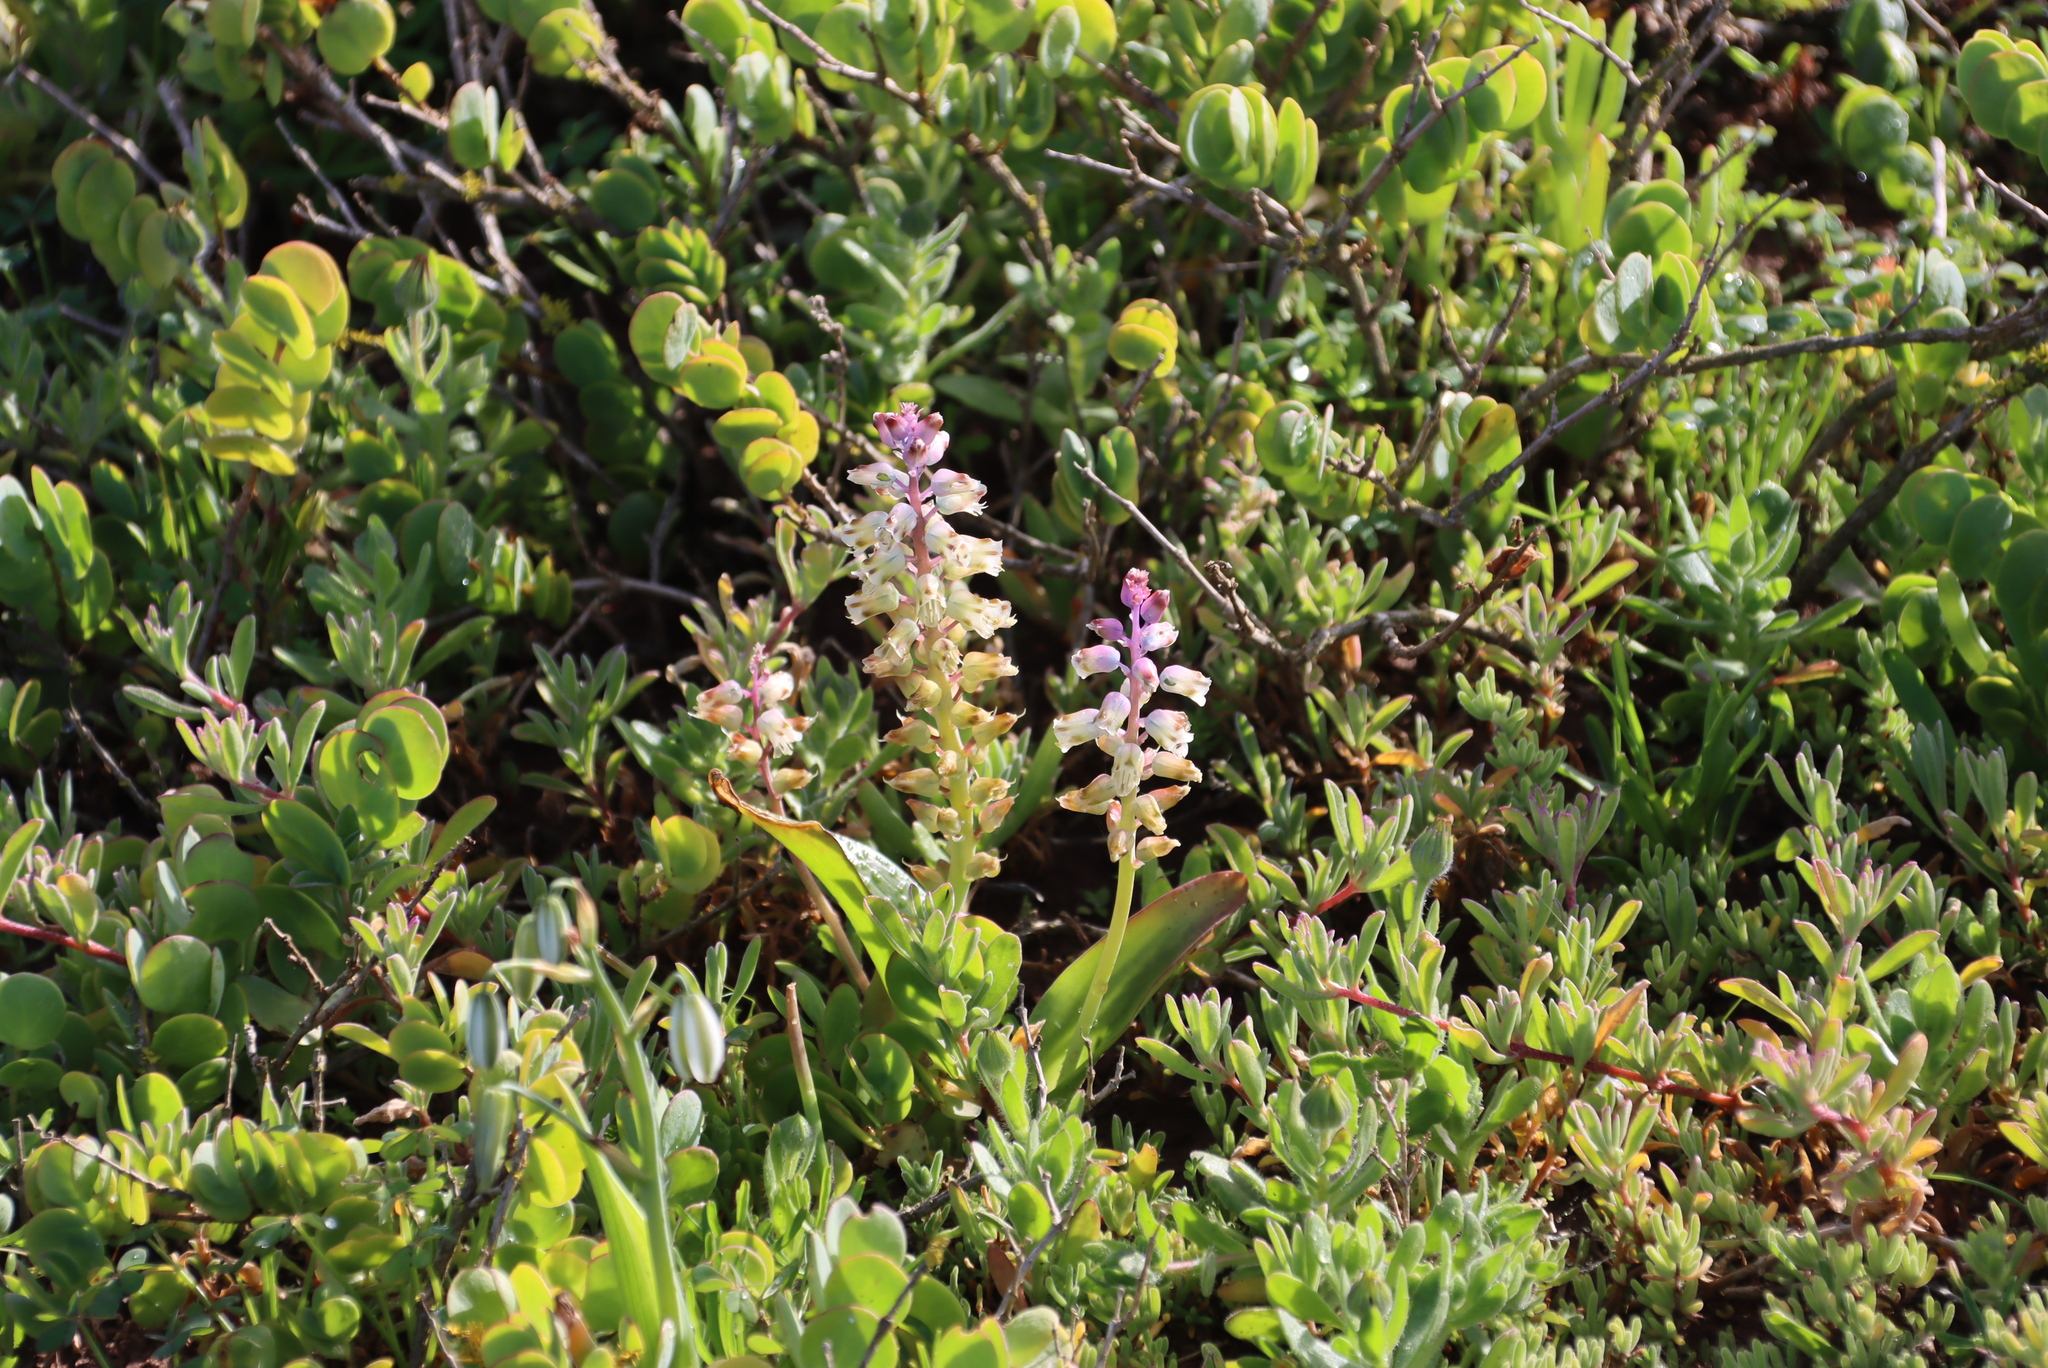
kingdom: Plantae
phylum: Tracheophyta
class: Liliopsida
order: Asparagales
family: Asparagaceae
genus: Lachenalia
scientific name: Lachenalia pallida
